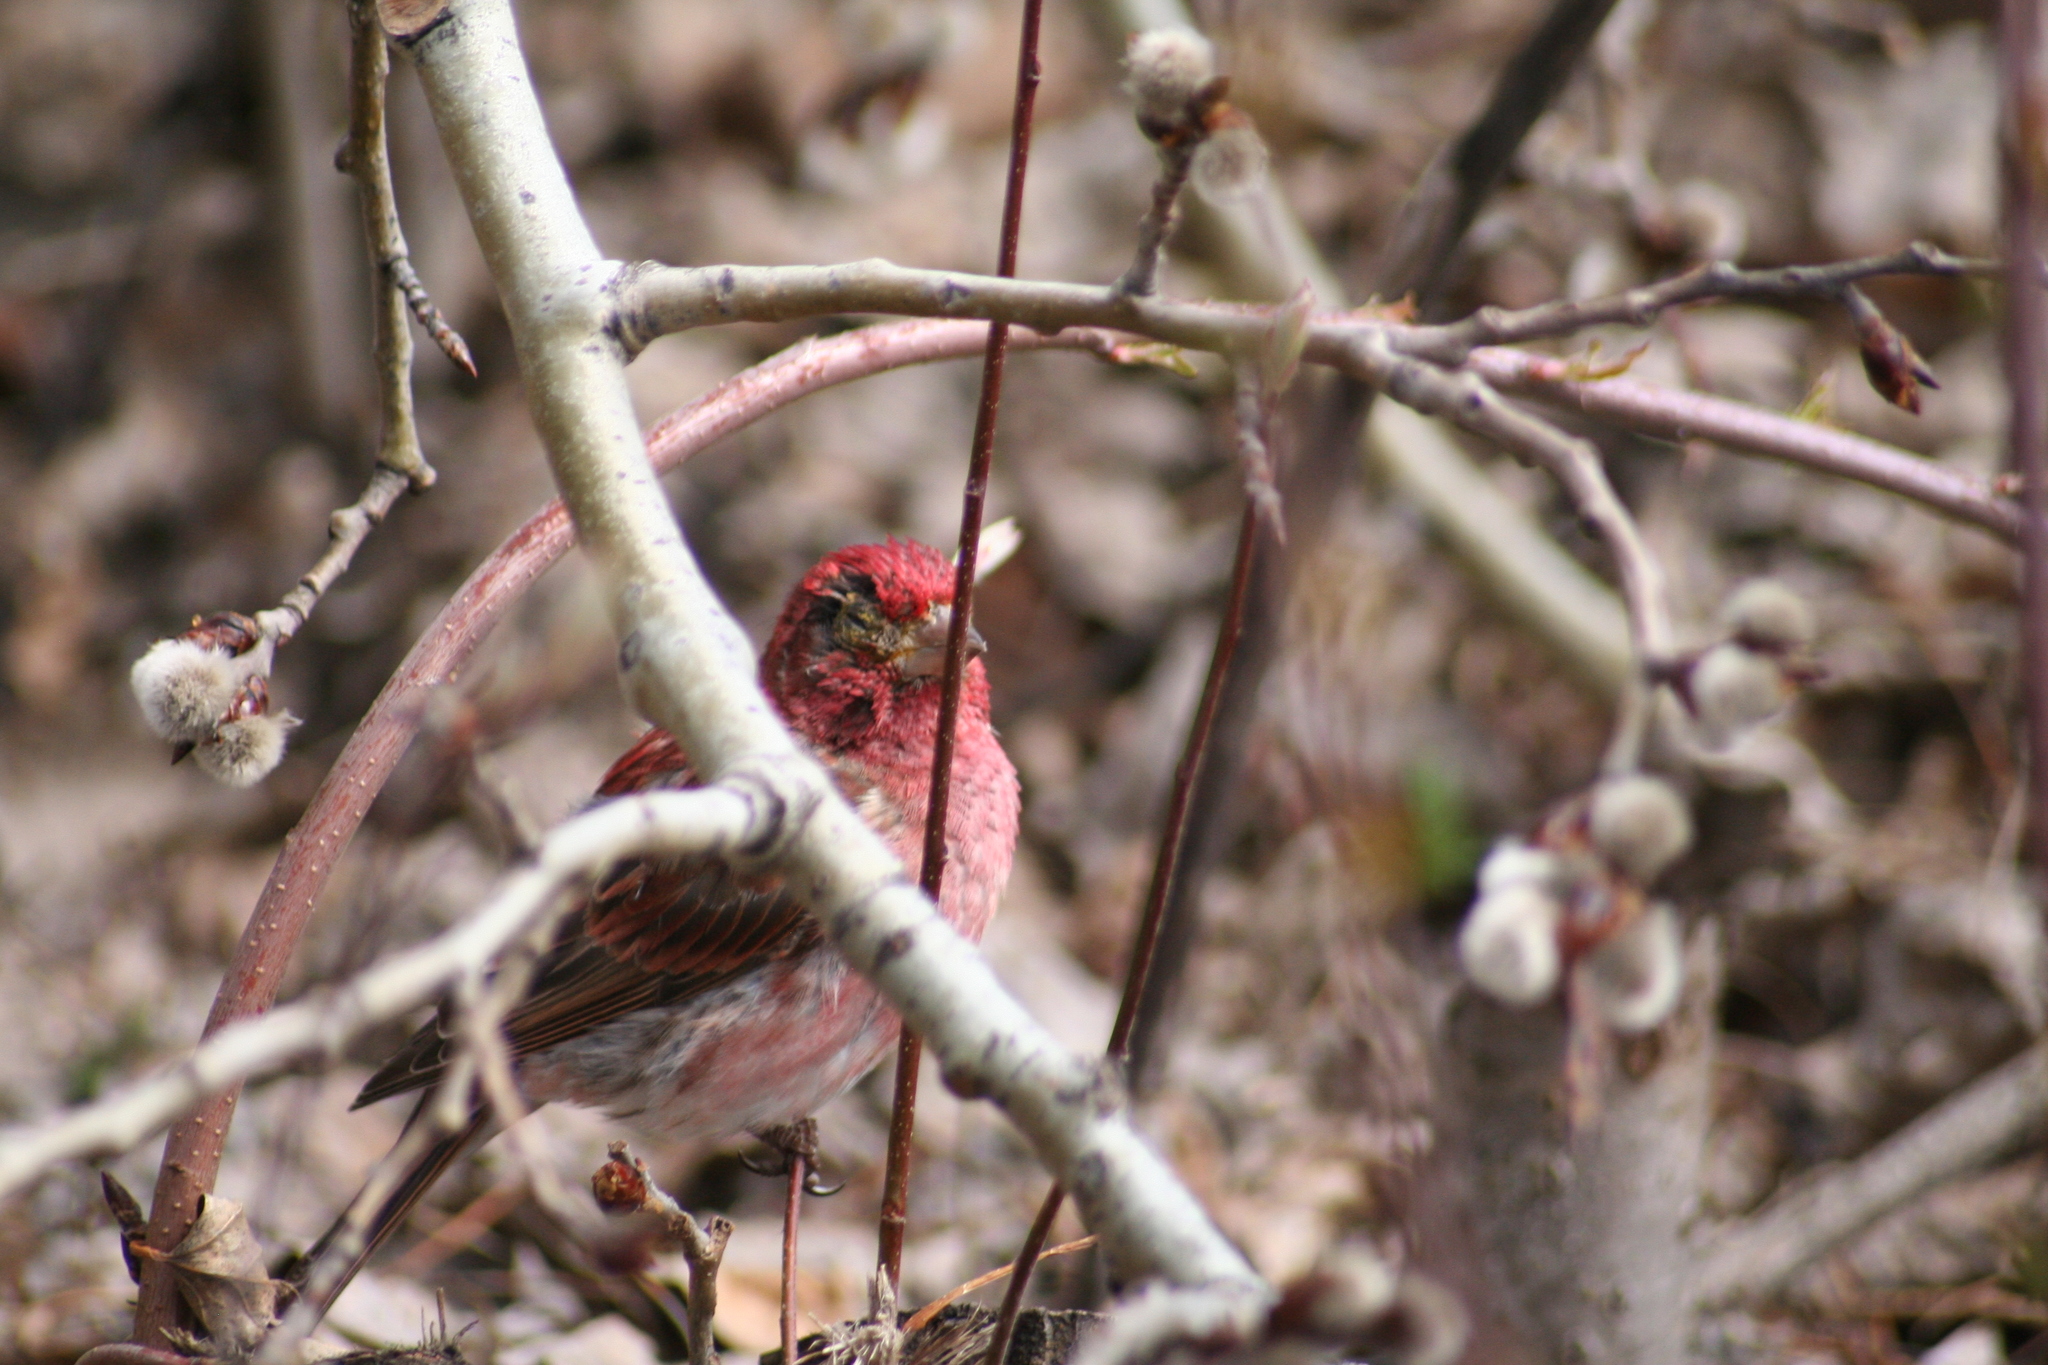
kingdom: Animalia
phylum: Chordata
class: Aves
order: Passeriformes
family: Fringillidae
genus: Haemorhous
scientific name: Haemorhous purpureus
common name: Purple finch
